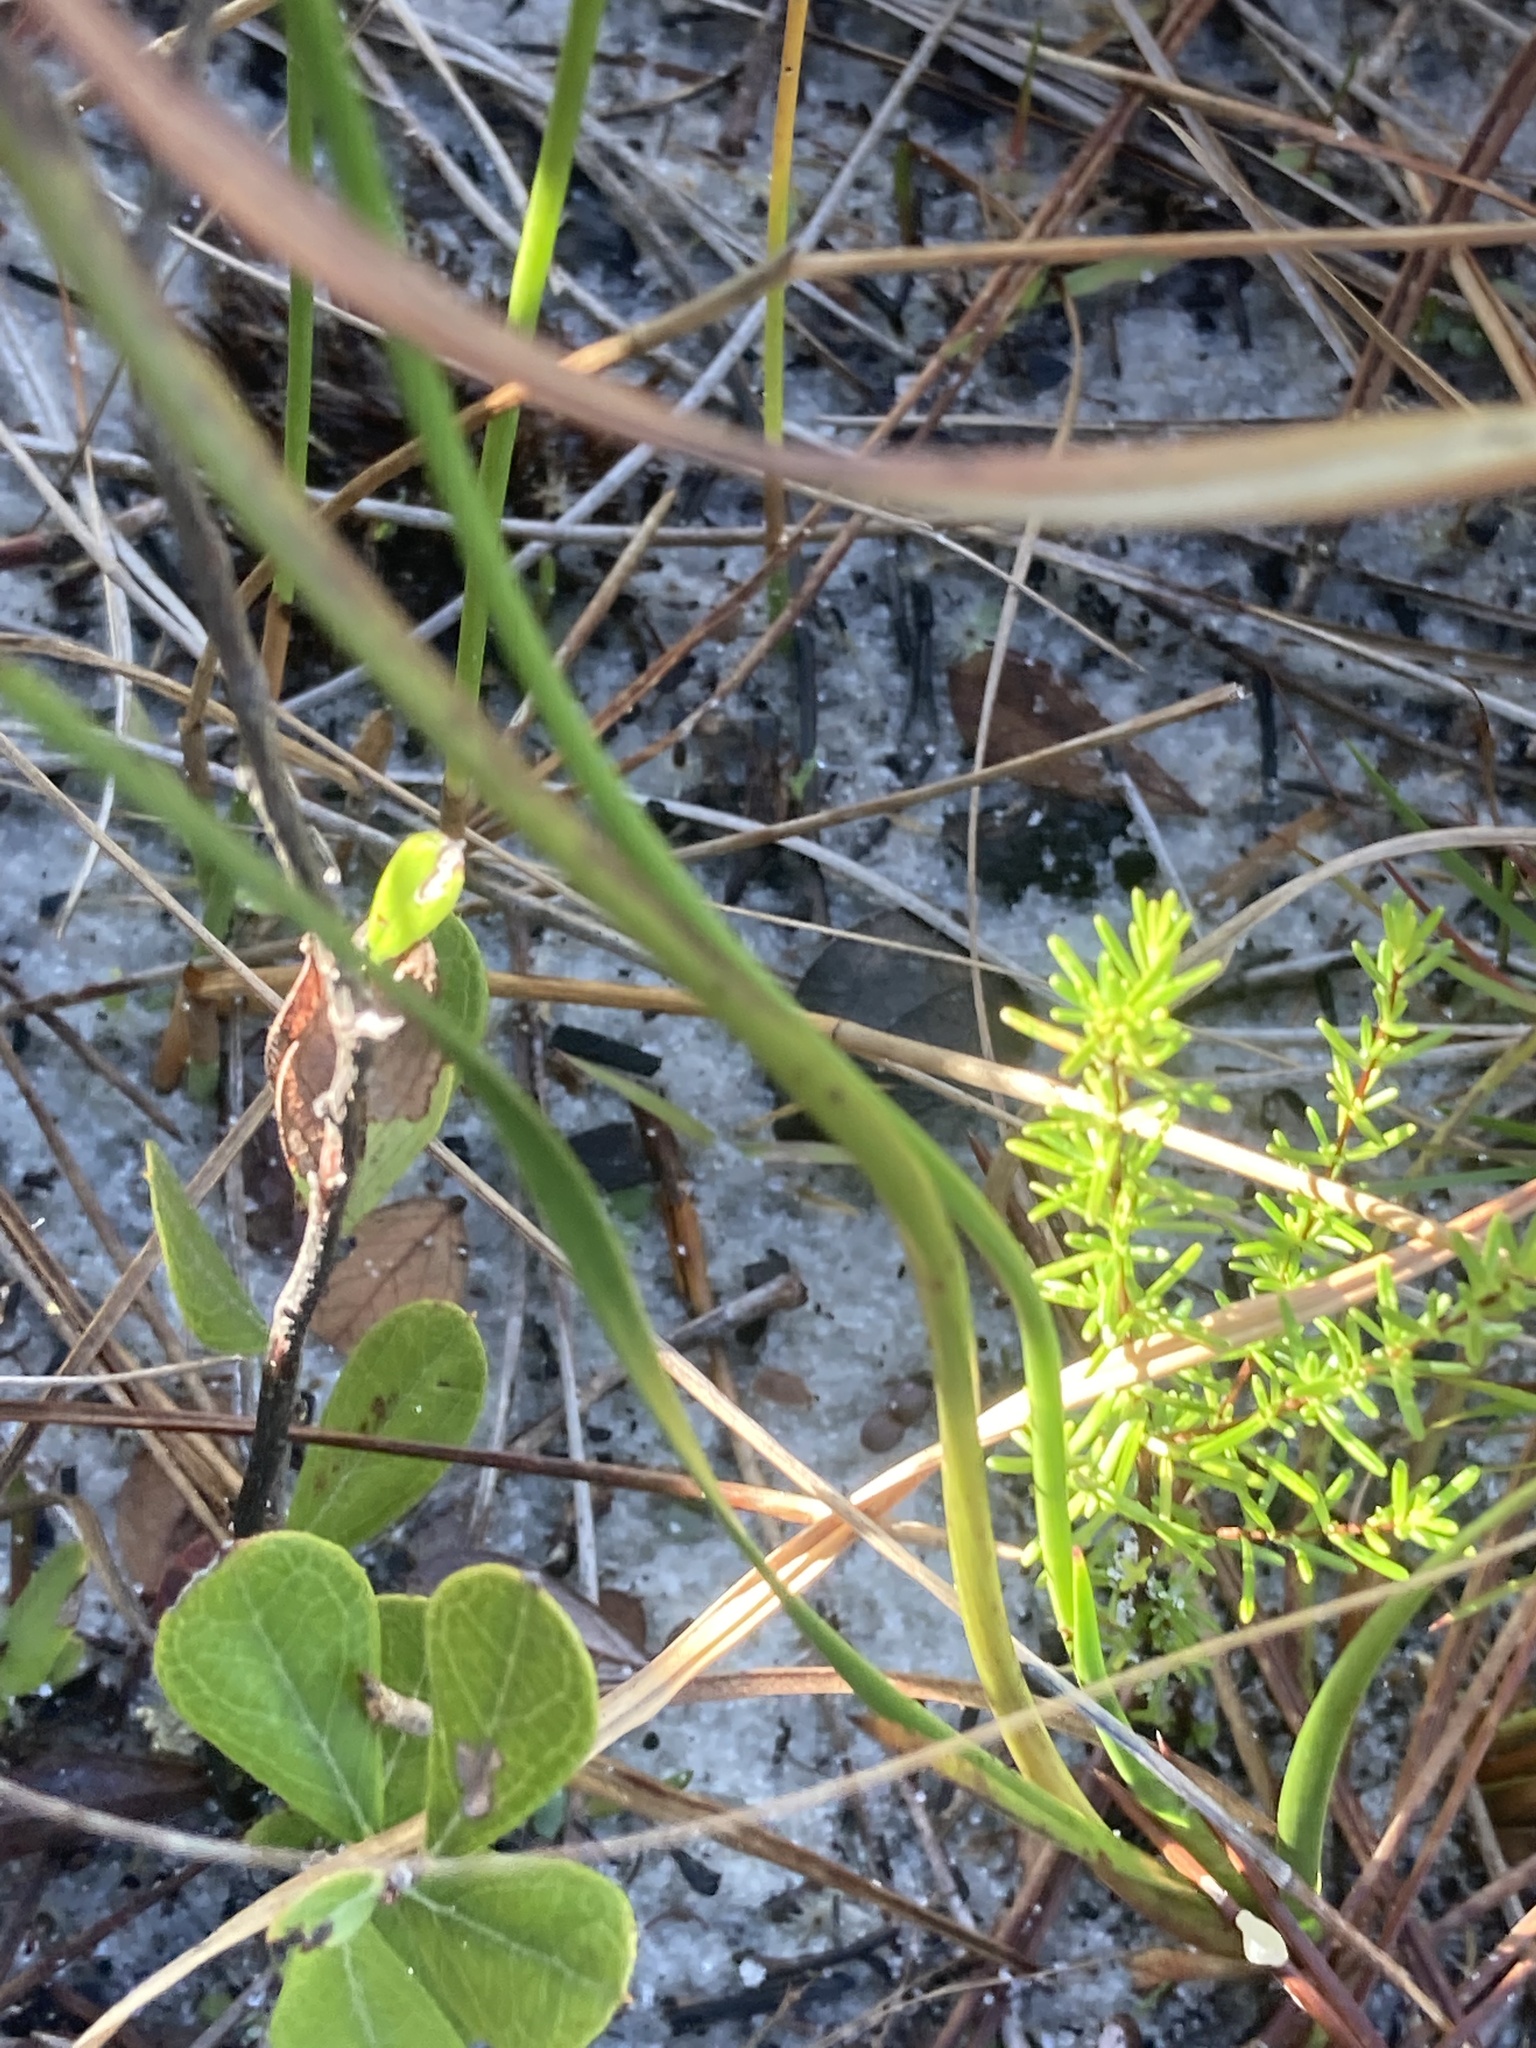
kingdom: Plantae
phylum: Tracheophyta
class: Liliopsida
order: Poales
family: Xyridaceae
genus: Xyris
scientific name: Xyris caroliniana
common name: Carolina yellow-eyed-grass
